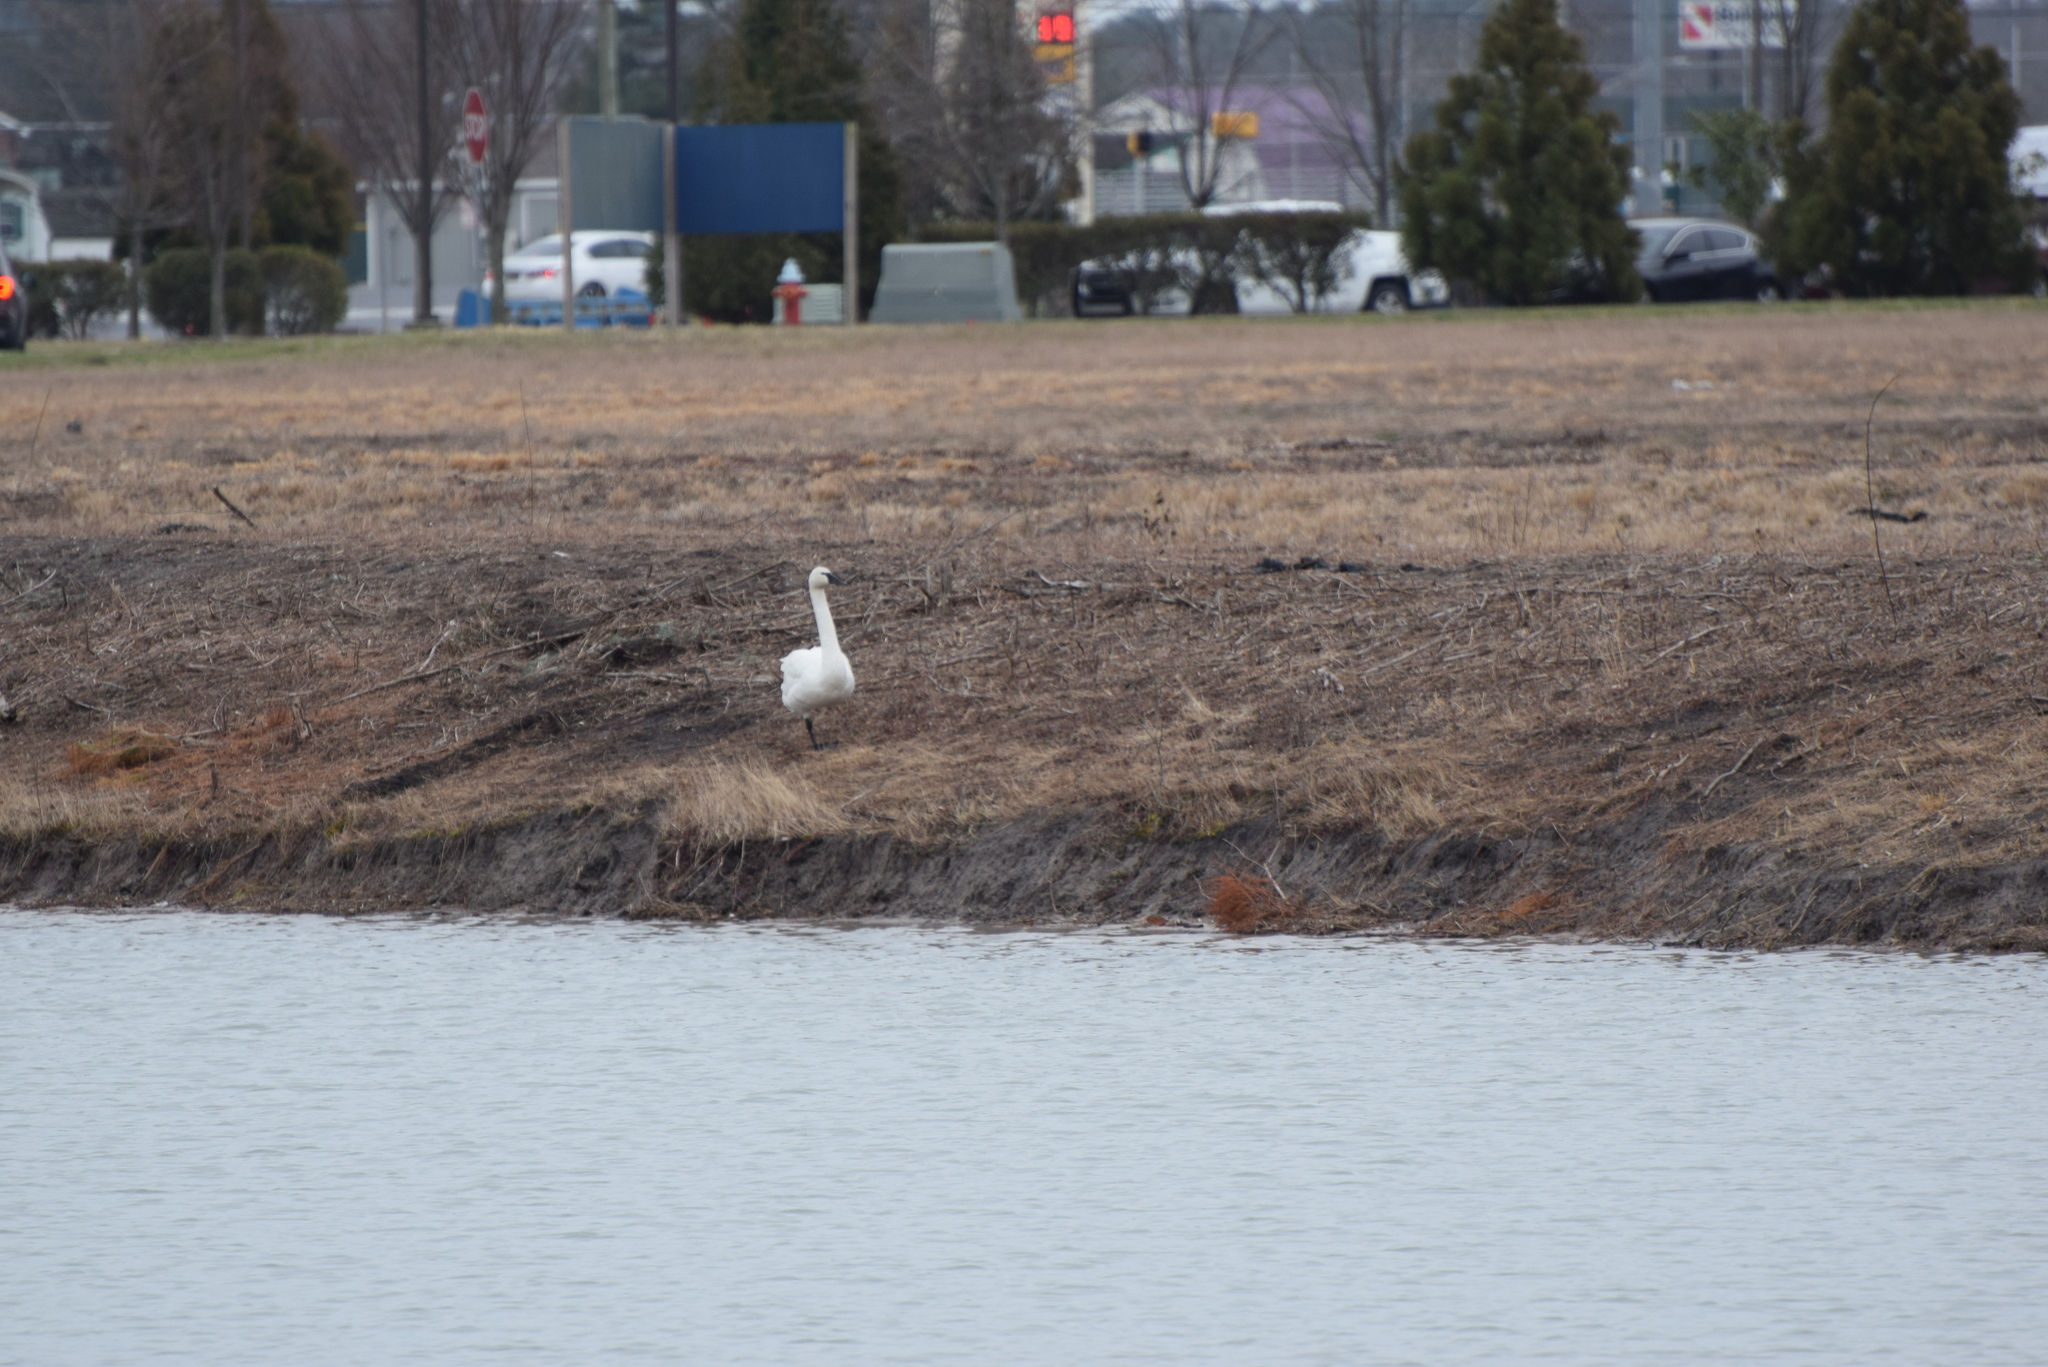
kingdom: Animalia
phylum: Chordata
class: Aves
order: Anseriformes
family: Anatidae
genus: Cygnus
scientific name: Cygnus columbianus
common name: Tundra swan
